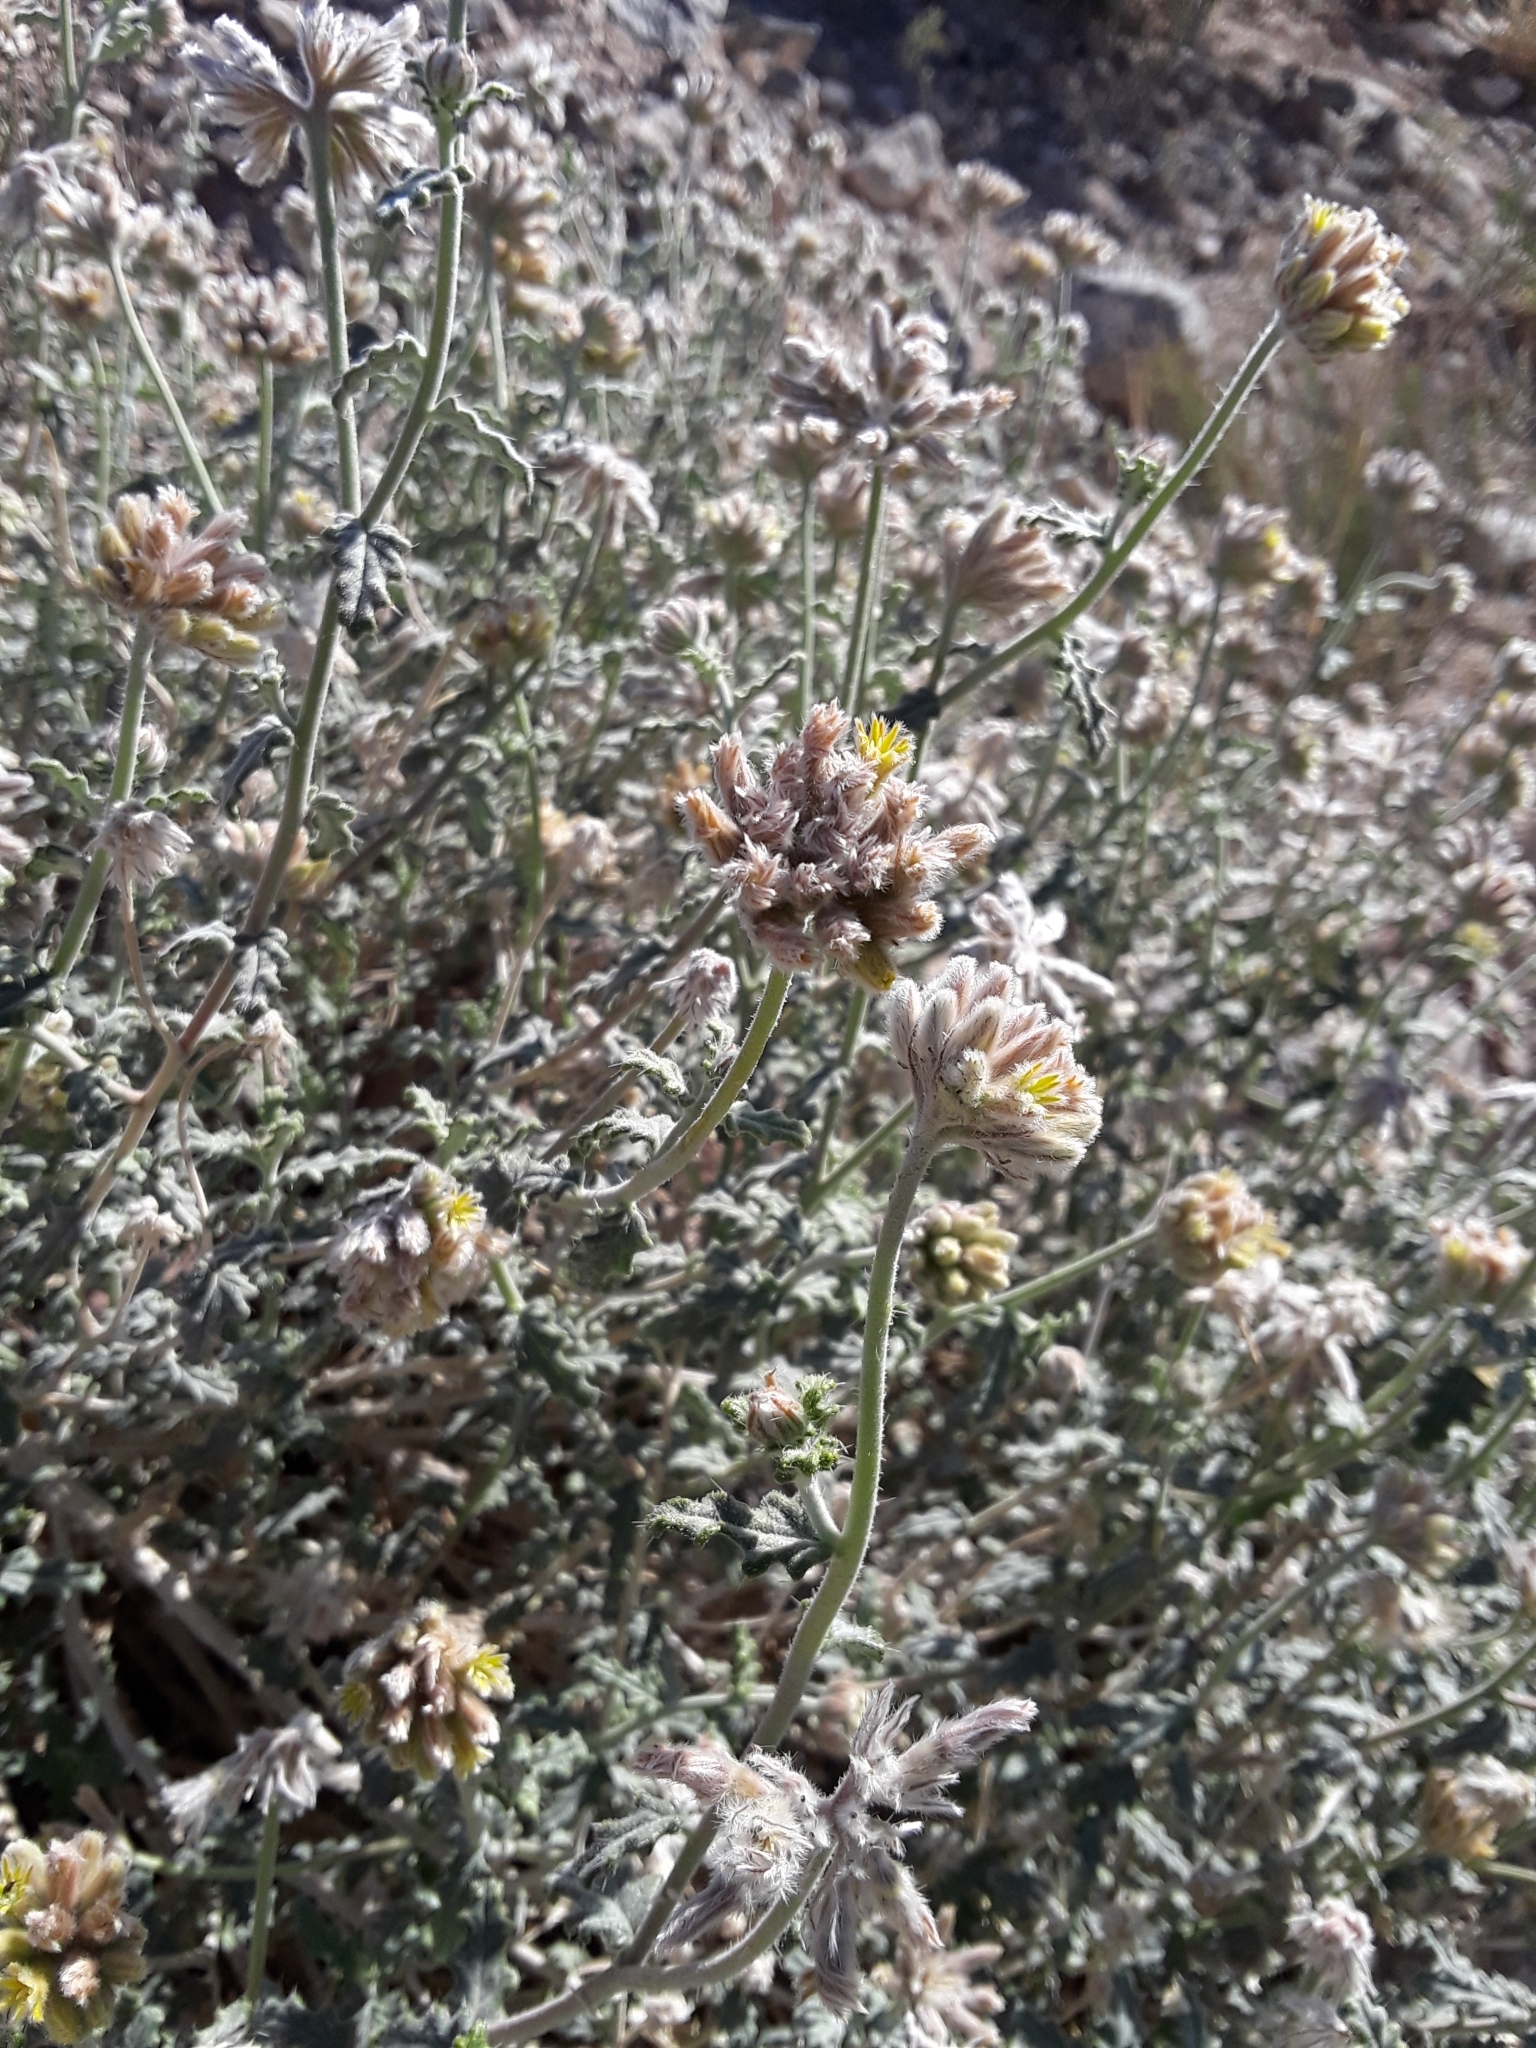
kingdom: Plantae
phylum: Tracheophyta
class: Magnoliopsida
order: Cornales
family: Loasaceae
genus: Cevallia
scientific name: Cevallia sinuata
